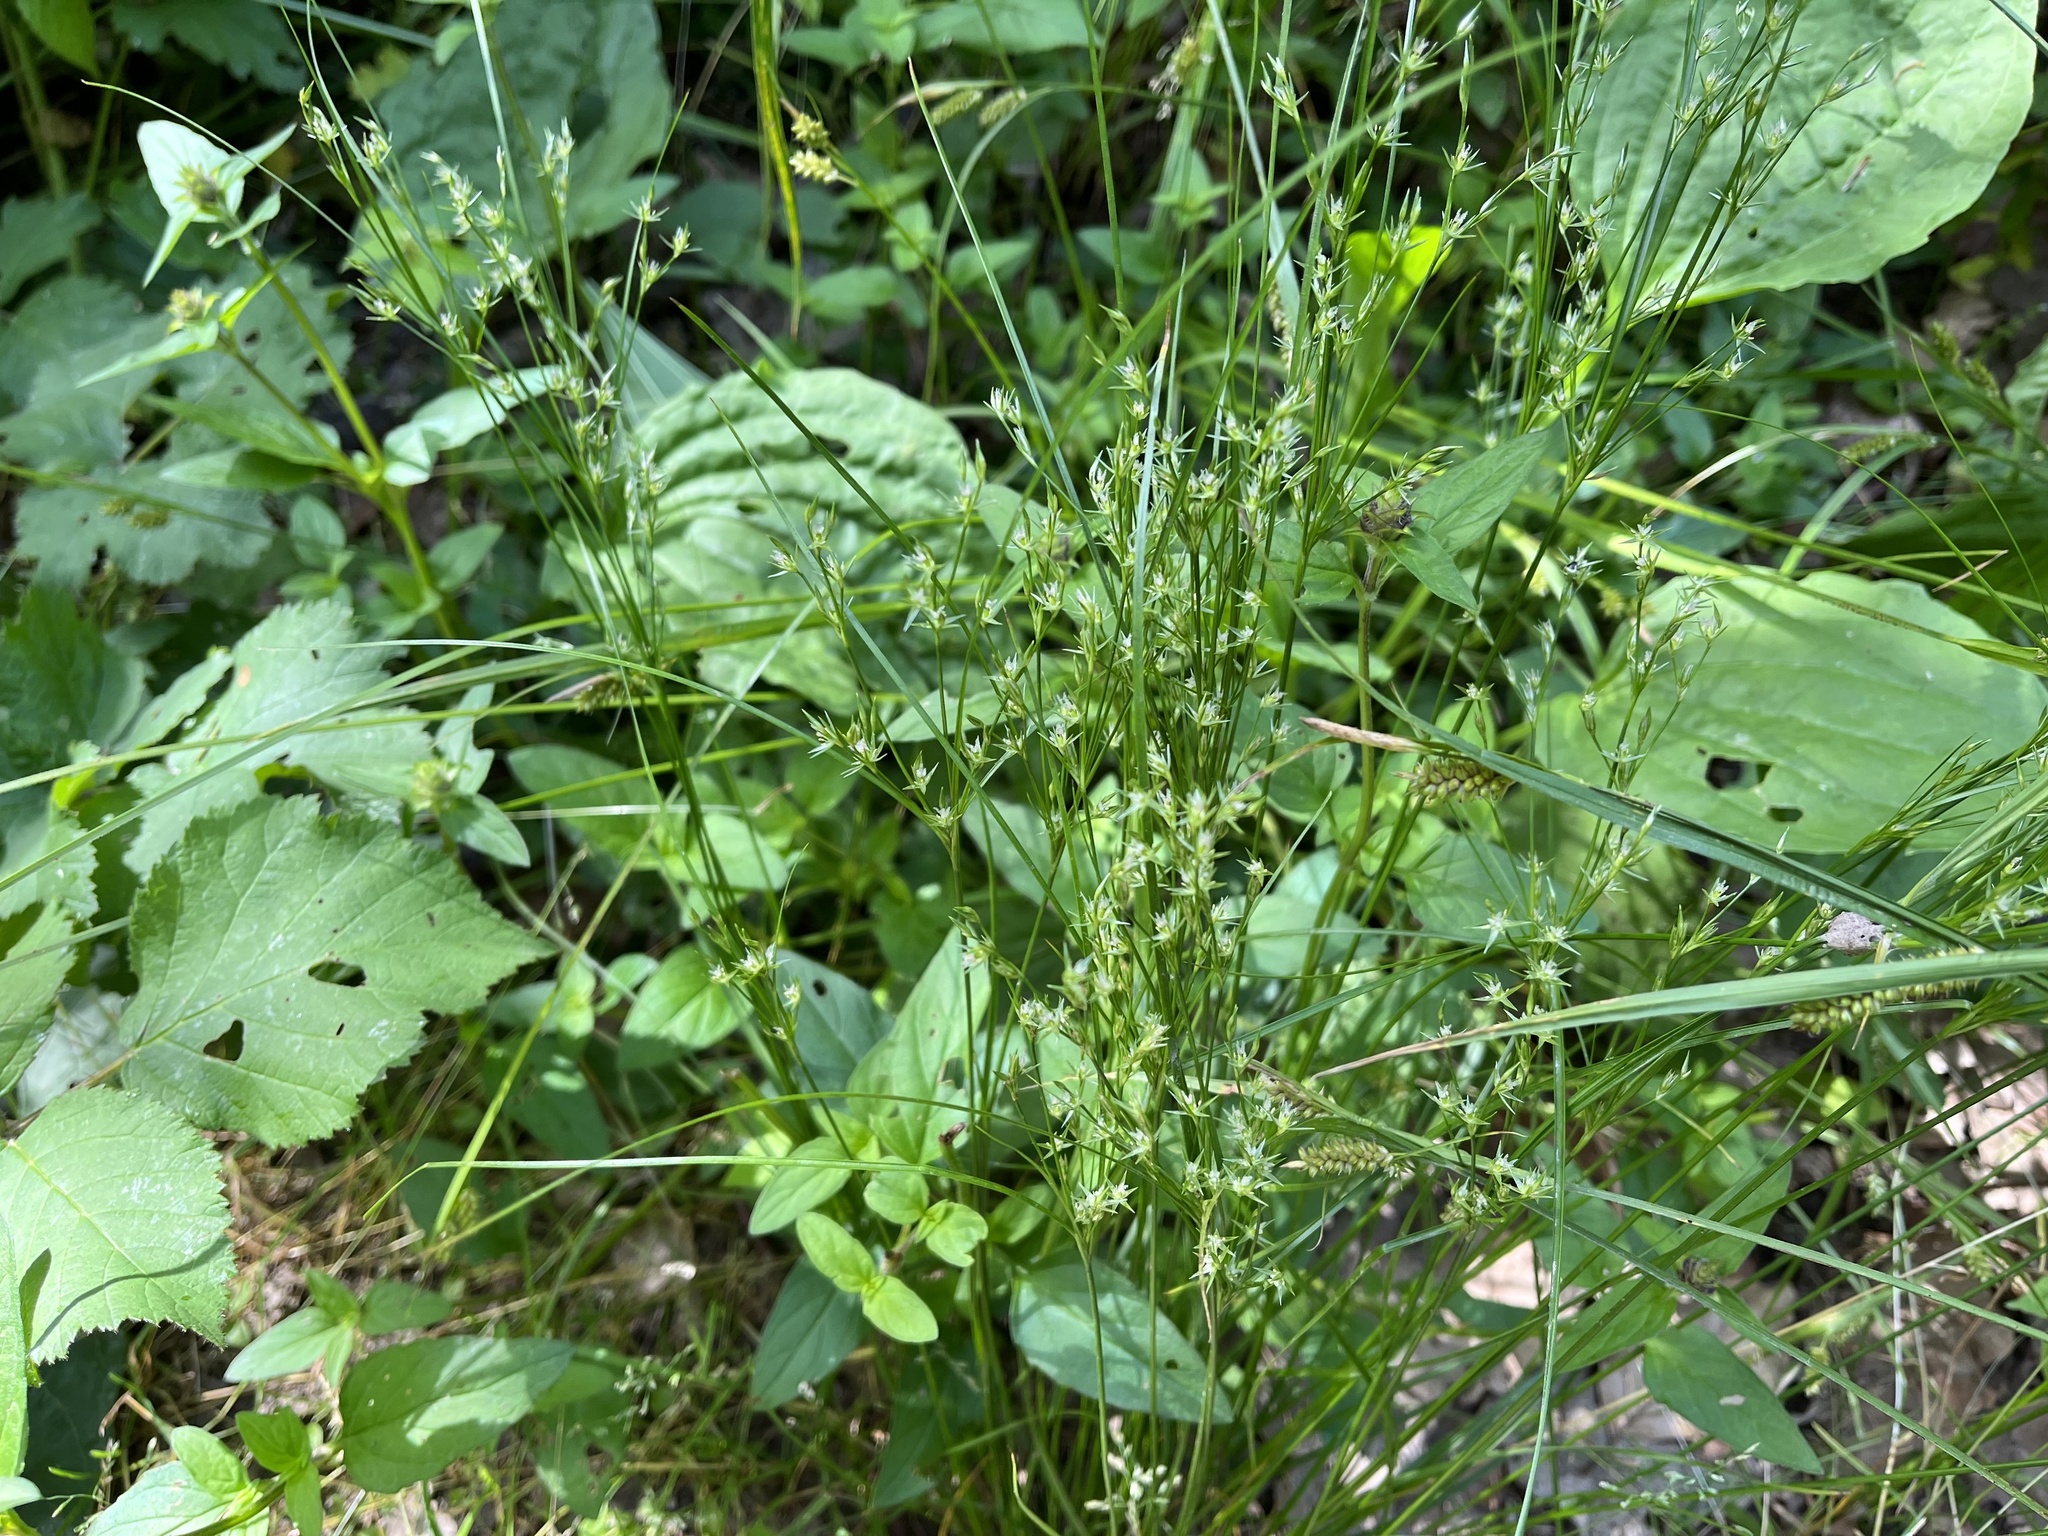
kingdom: Plantae
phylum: Tracheophyta
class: Liliopsida
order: Poales
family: Juncaceae
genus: Juncus
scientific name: Juncus tenuis
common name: Slender rush
